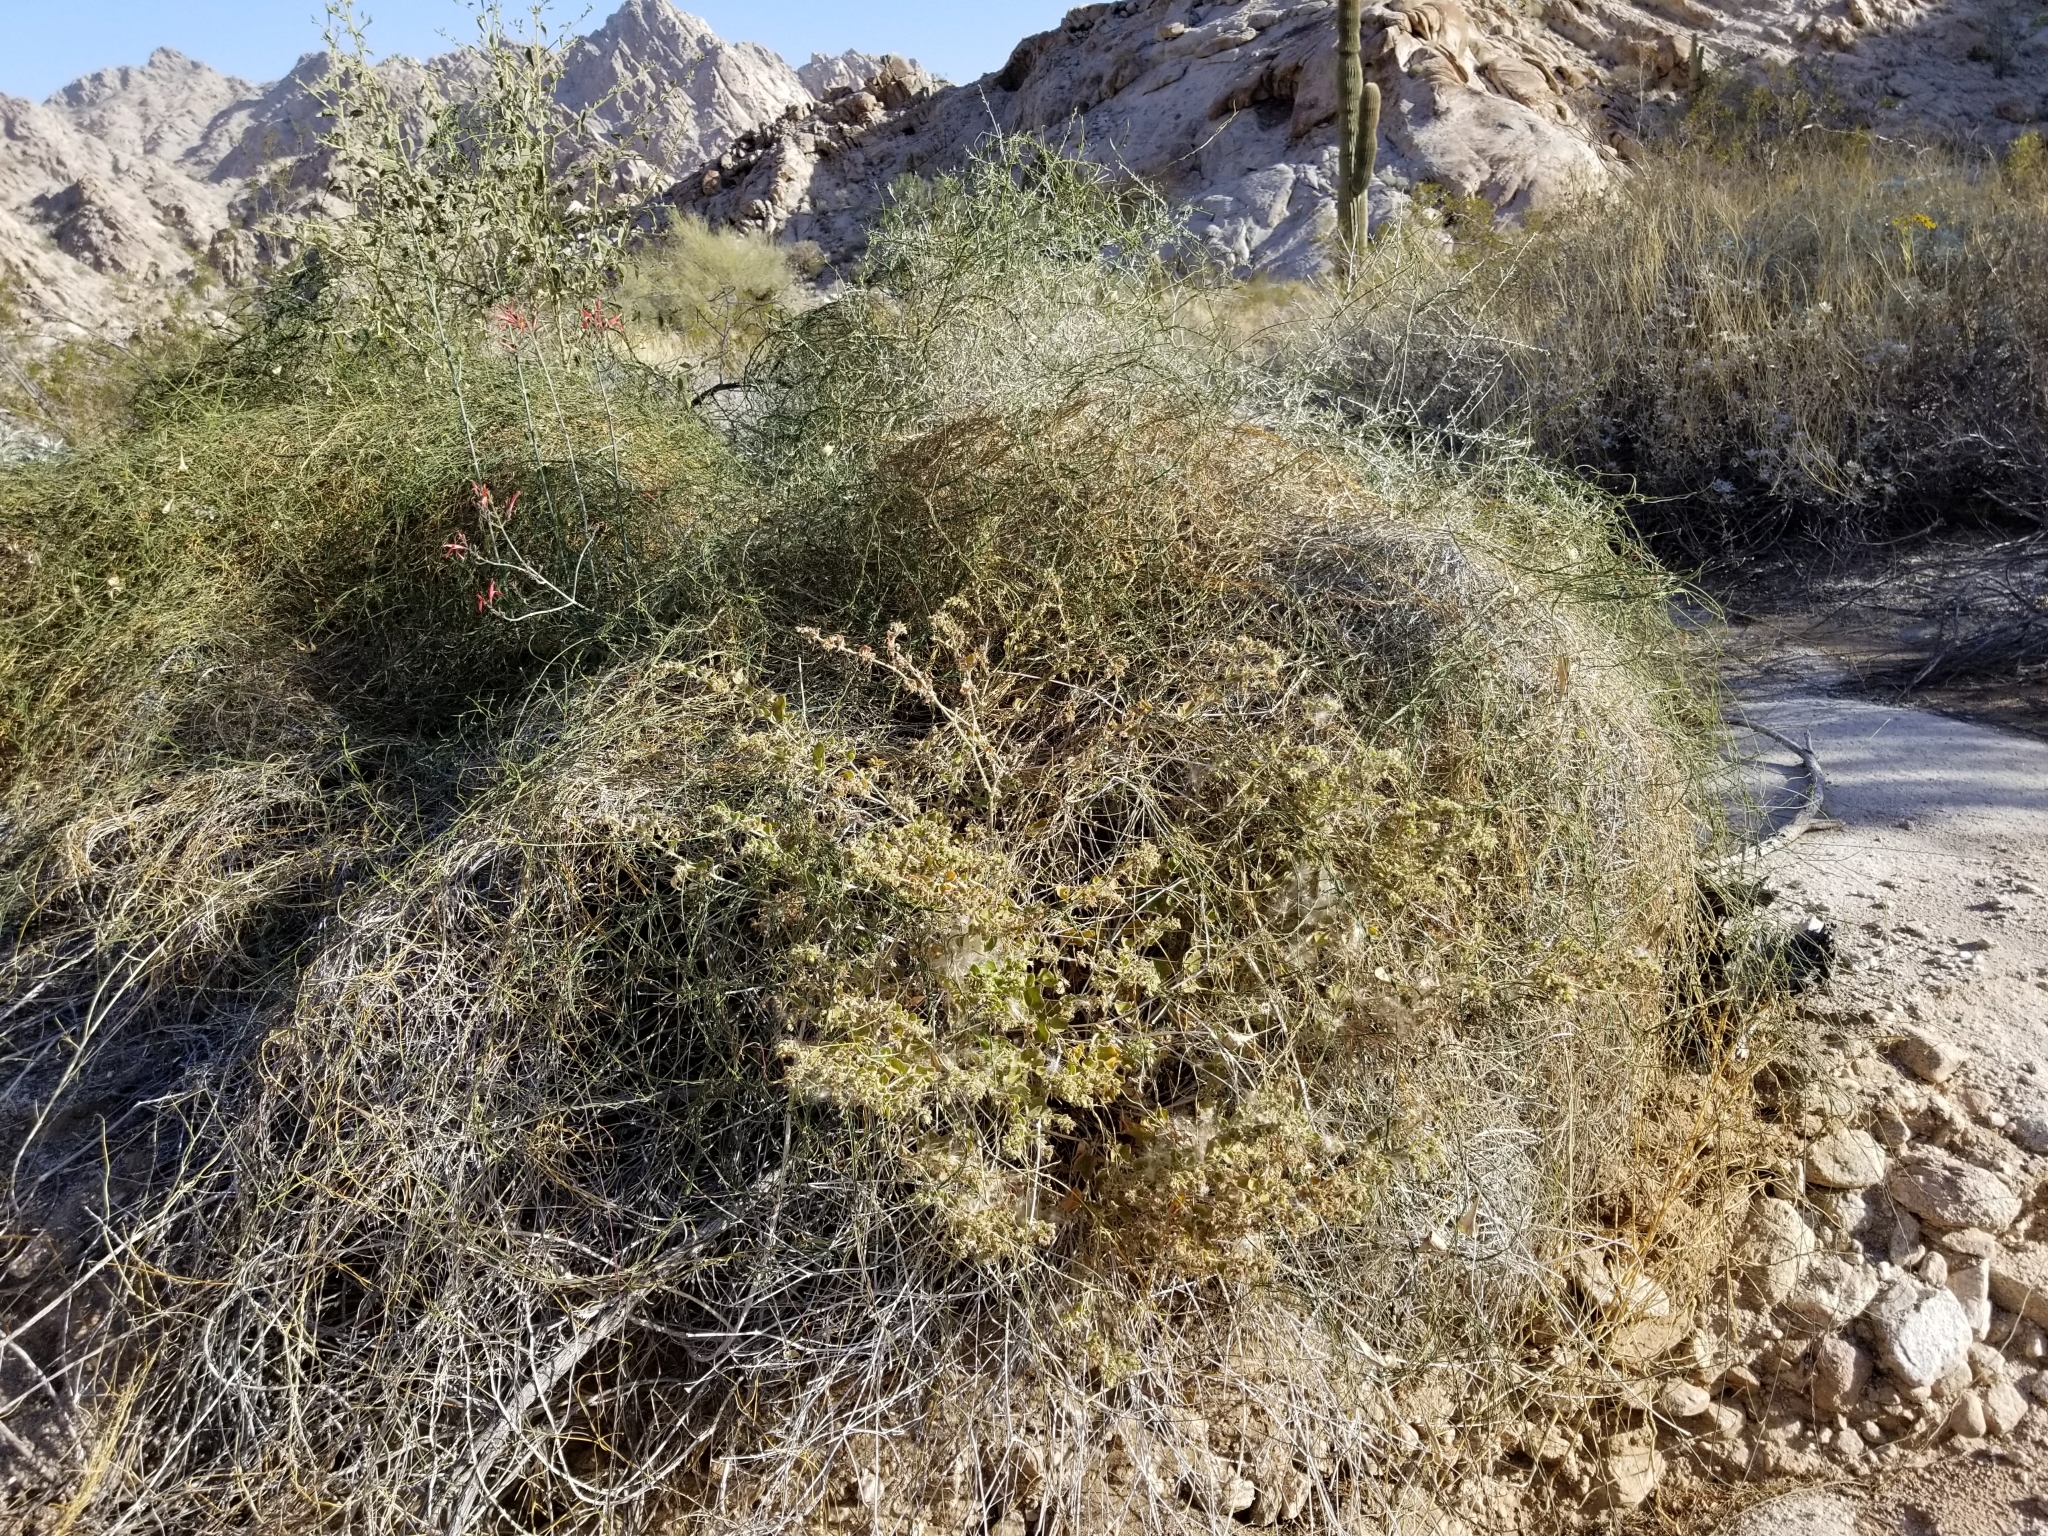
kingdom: Plantae
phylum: Tracheophyta
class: Magnoliopsida
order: Caryophyllales
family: Nyctaginaceae
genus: Mirabilis
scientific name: Mirabilis laevis
